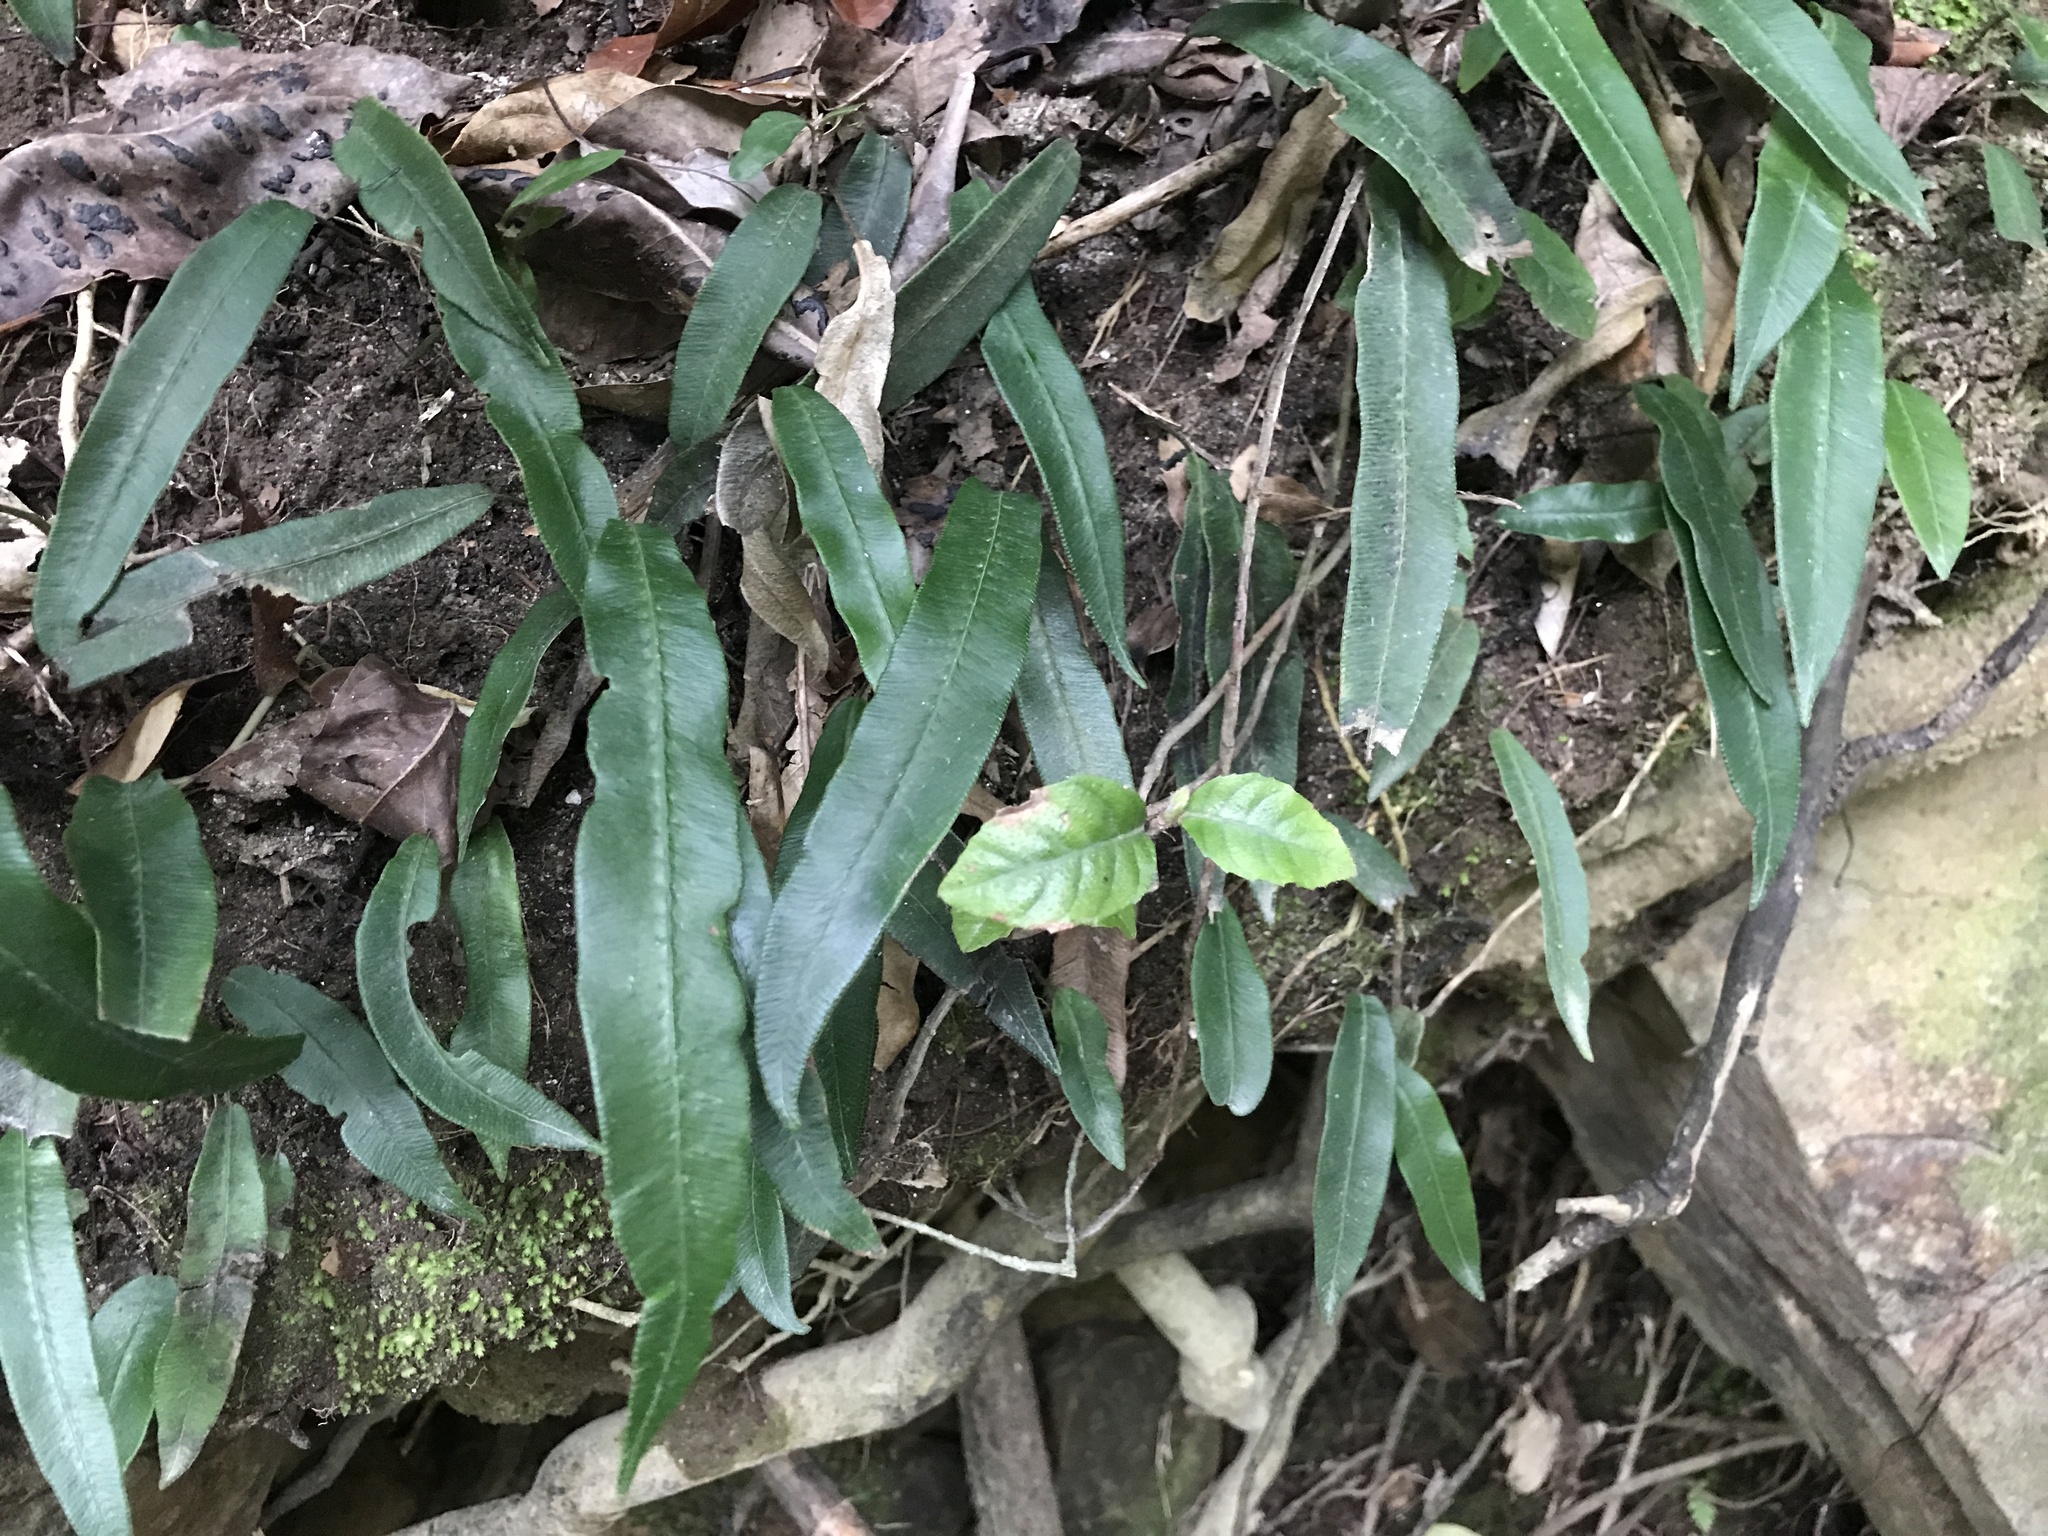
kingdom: Plantae
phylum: Tracheophyta
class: Polypodiopsida
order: Polypodiales
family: Athyriaceae
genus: Deparia
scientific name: Deparia lancea
